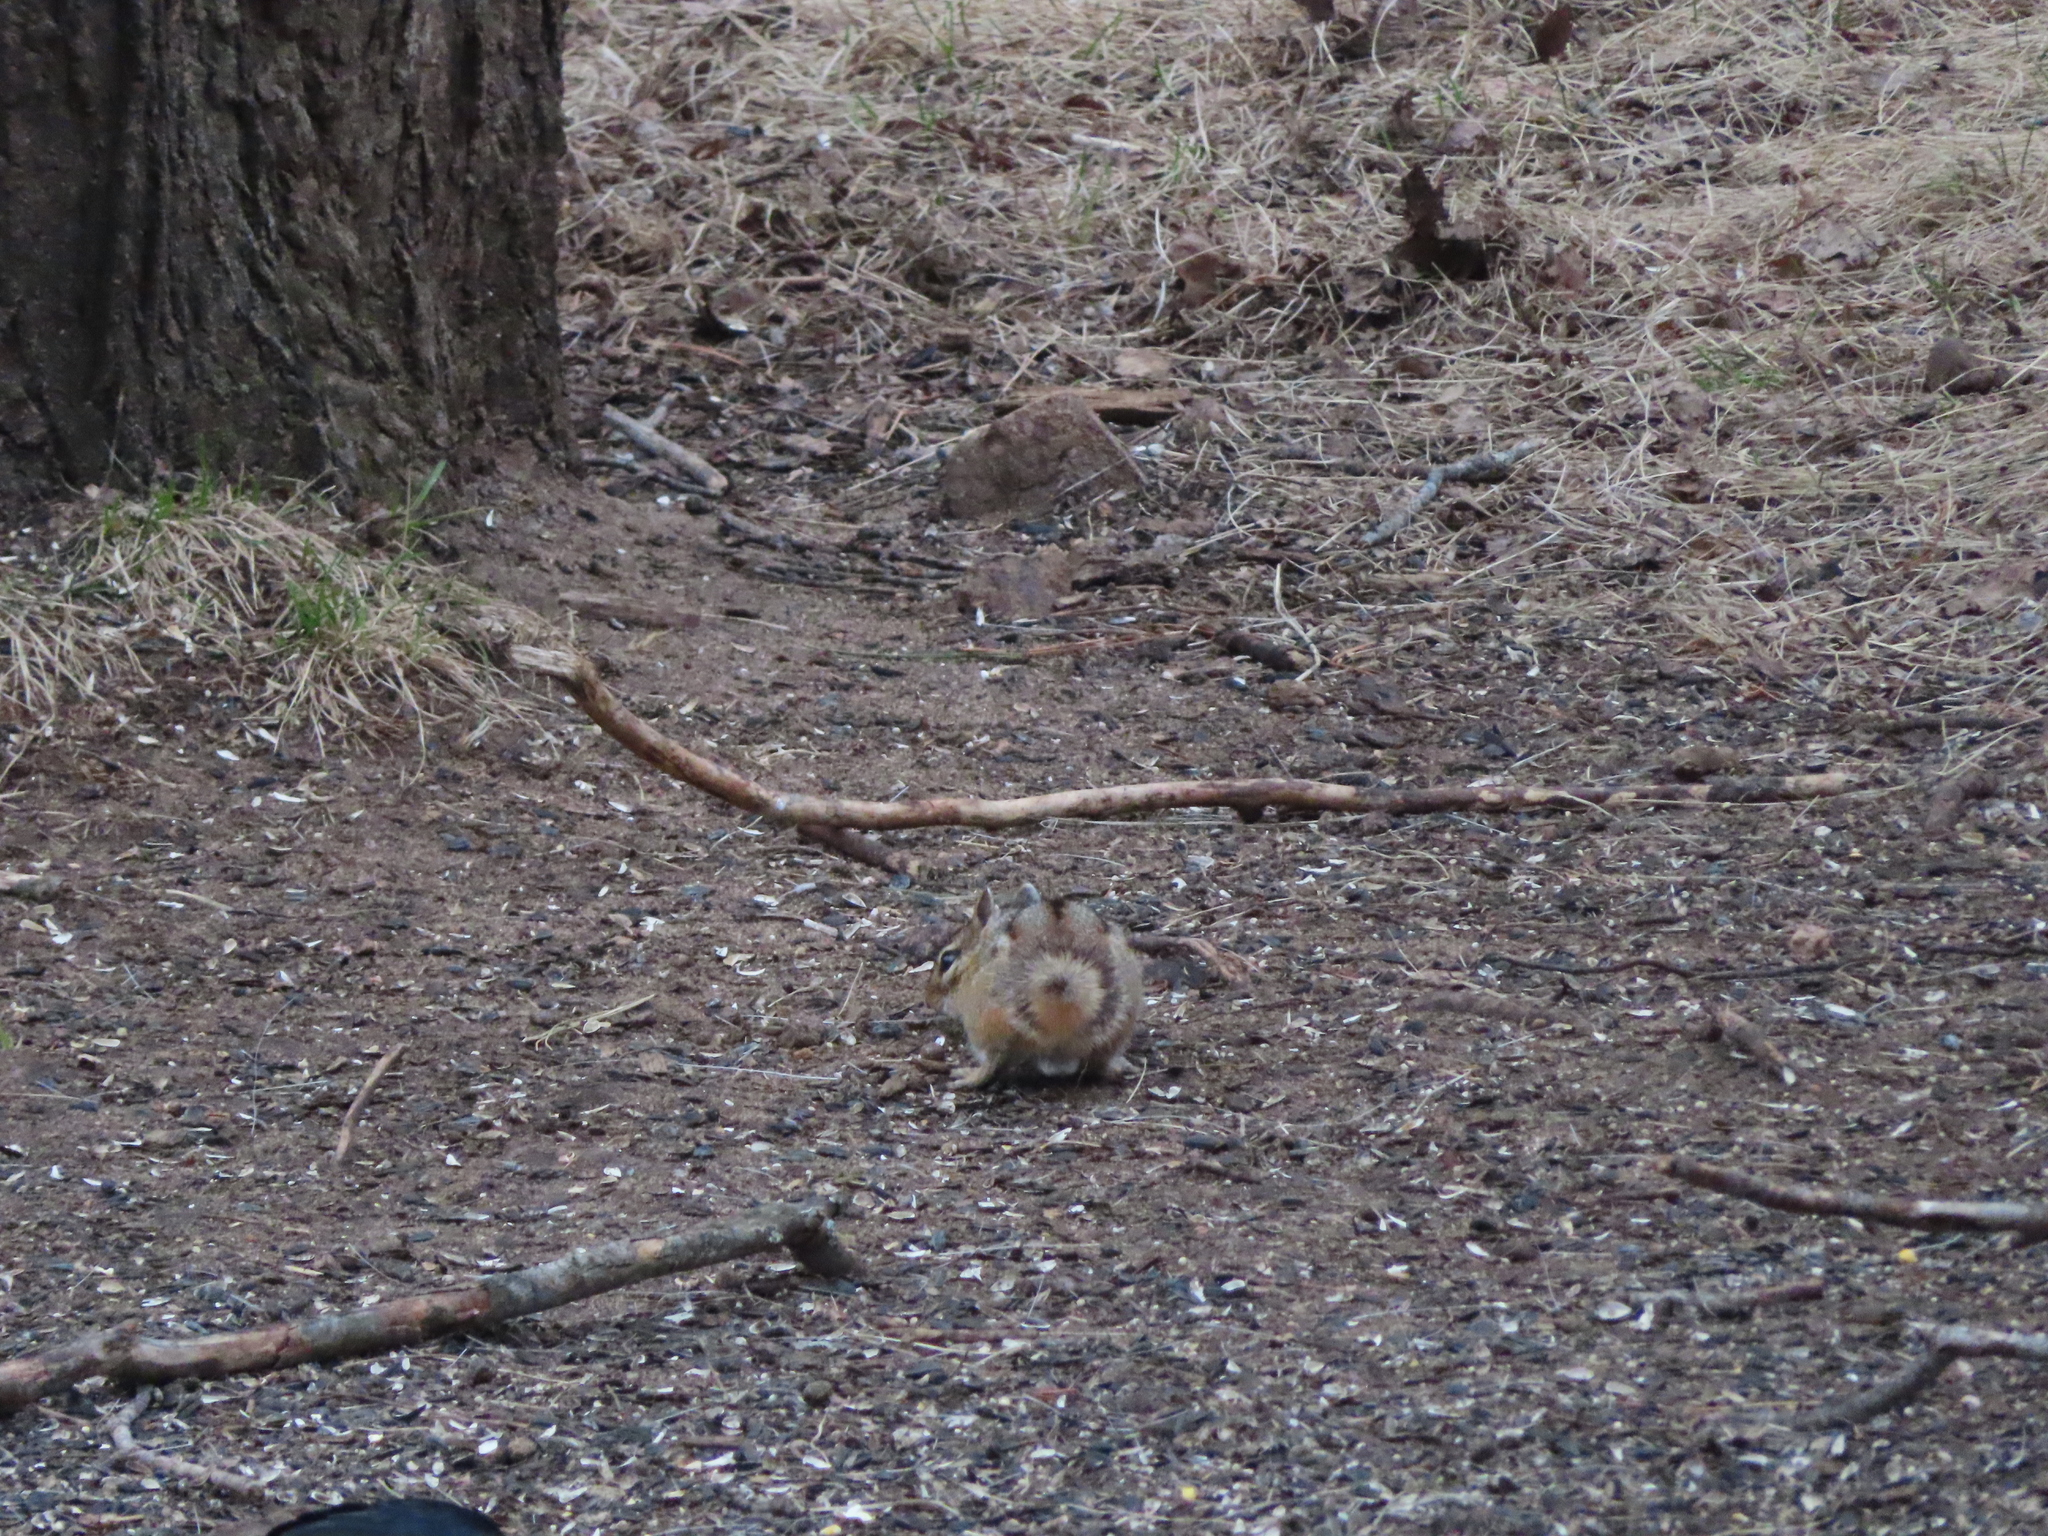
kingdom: Animalia
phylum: Chordata
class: Mammalia
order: Rodentia
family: Sciuridae
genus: Tamias
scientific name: Tamias striatus
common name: Eastern chipmunk
